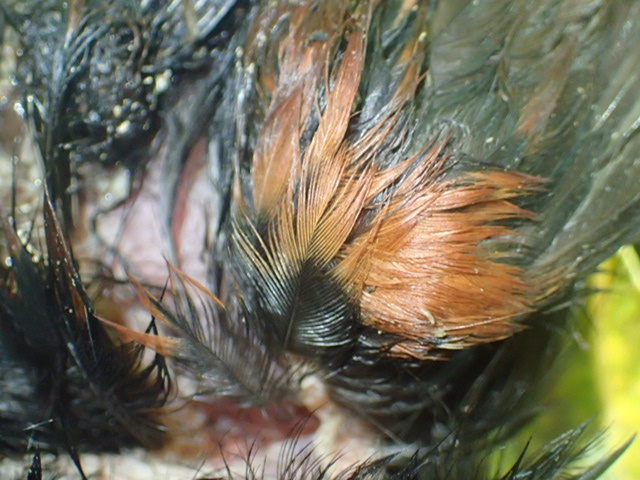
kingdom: Animalia
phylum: Chordata
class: Aves
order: Passeriformes
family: Callaeatidae
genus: Philesturnus
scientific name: Philesturnus carunculatus
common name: South island saddleback
